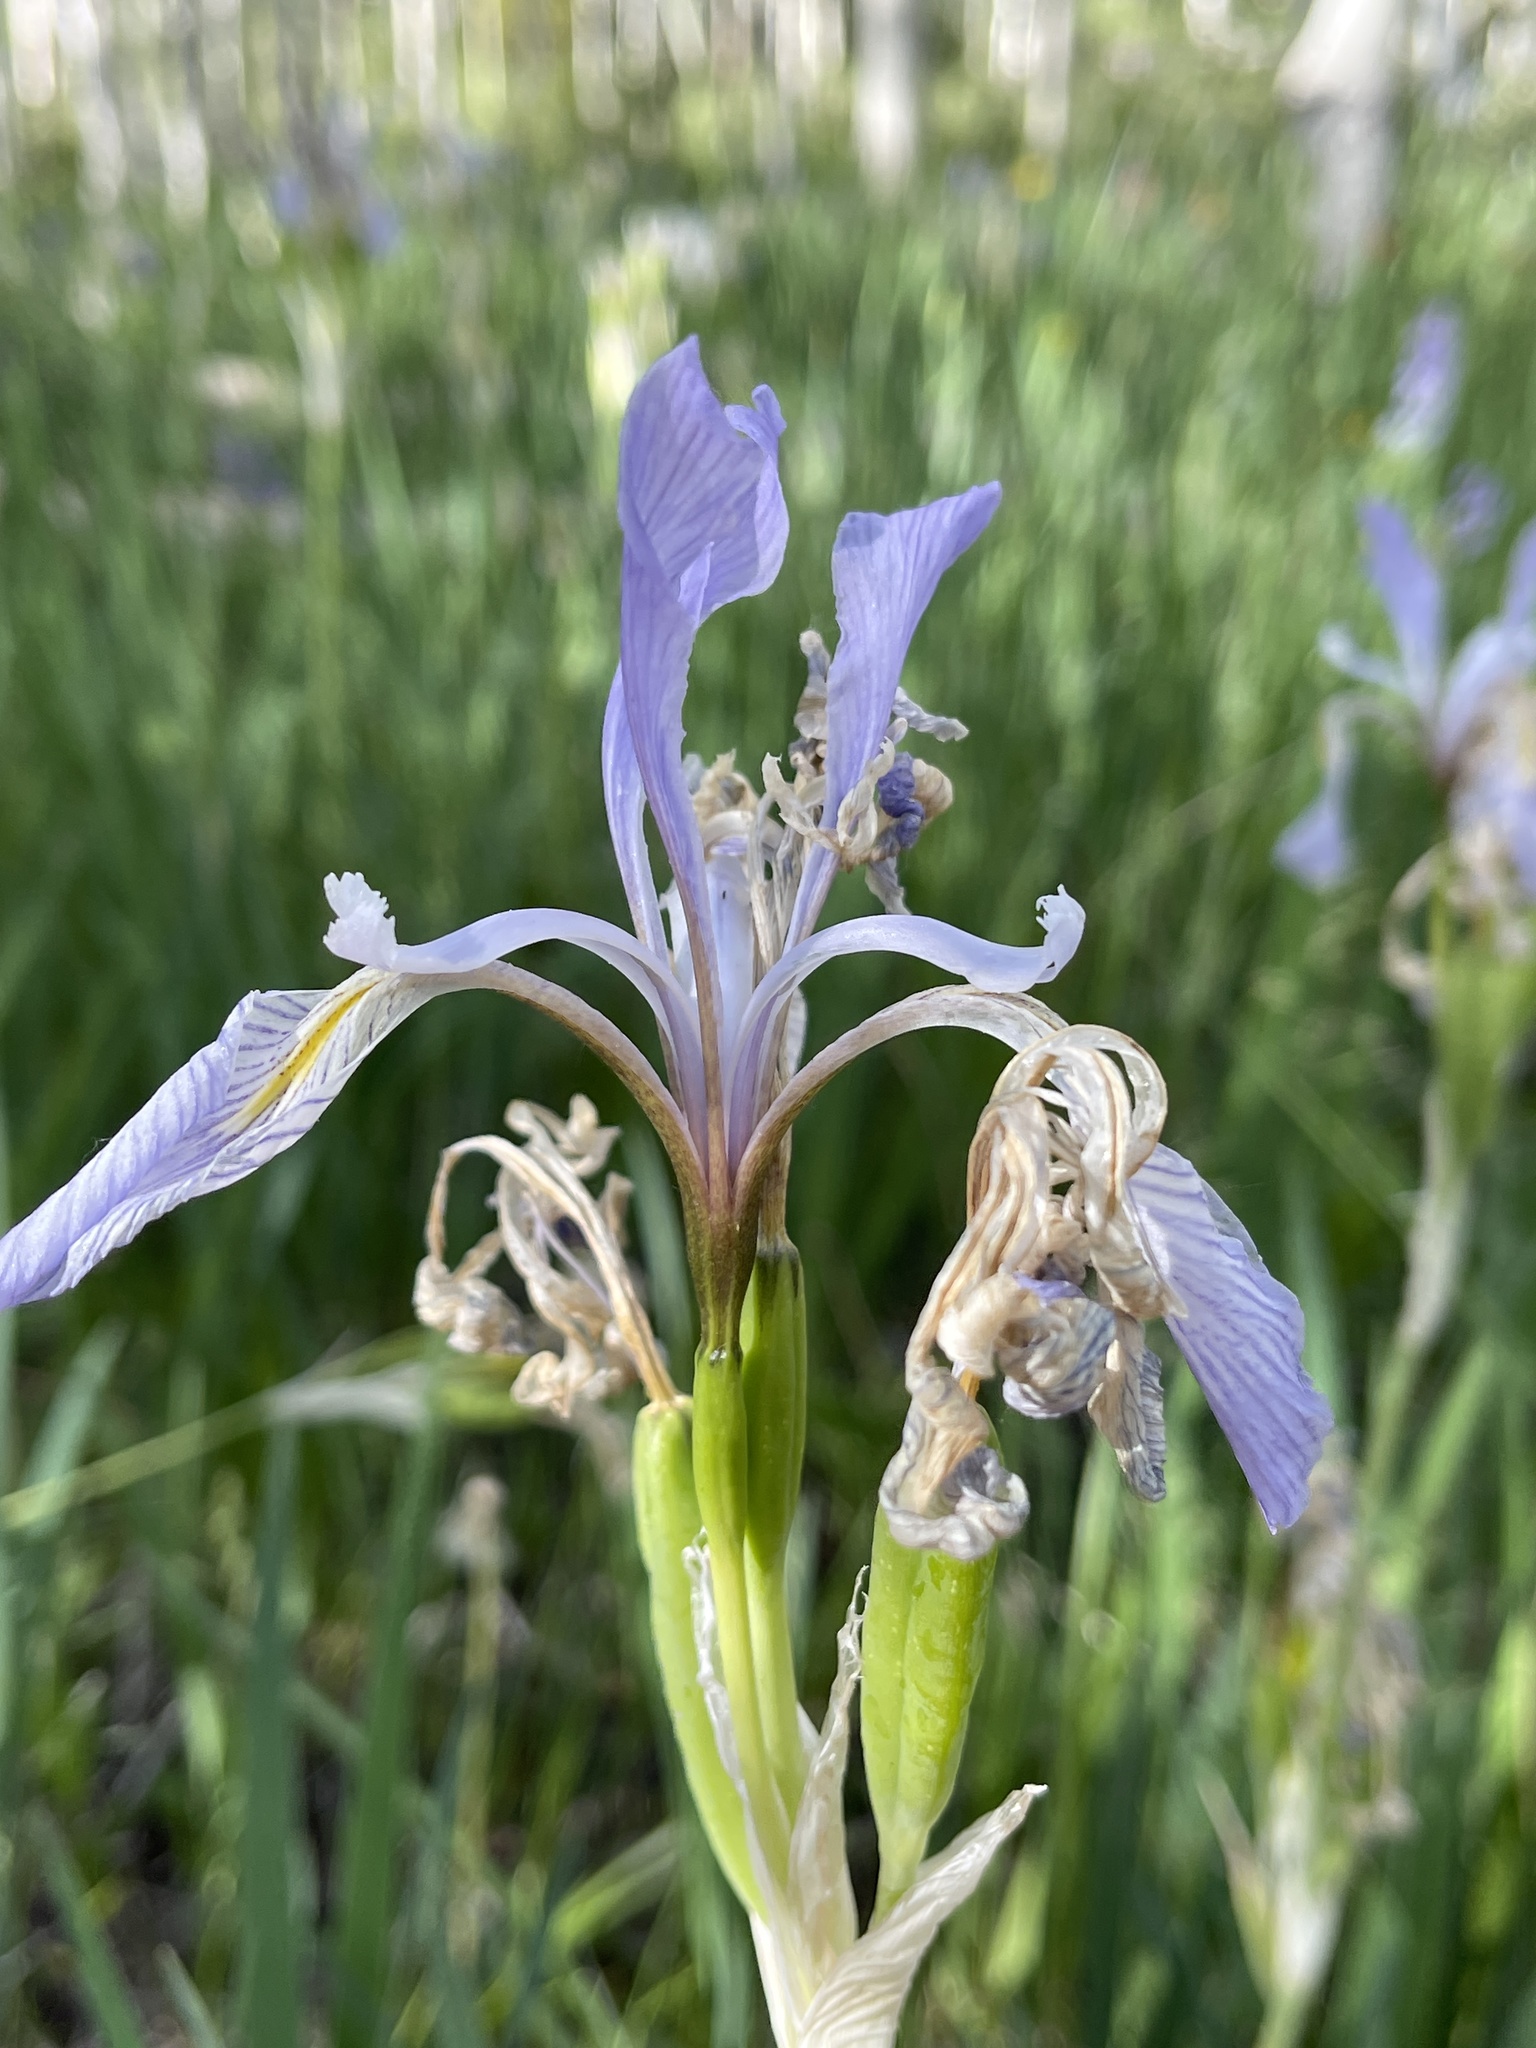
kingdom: Plantae
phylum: Tracheophyta
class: Liliopsida
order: Asparagales
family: Iridaceae
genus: Iris
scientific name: Iris missouriensis
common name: Rocky mountain iris
